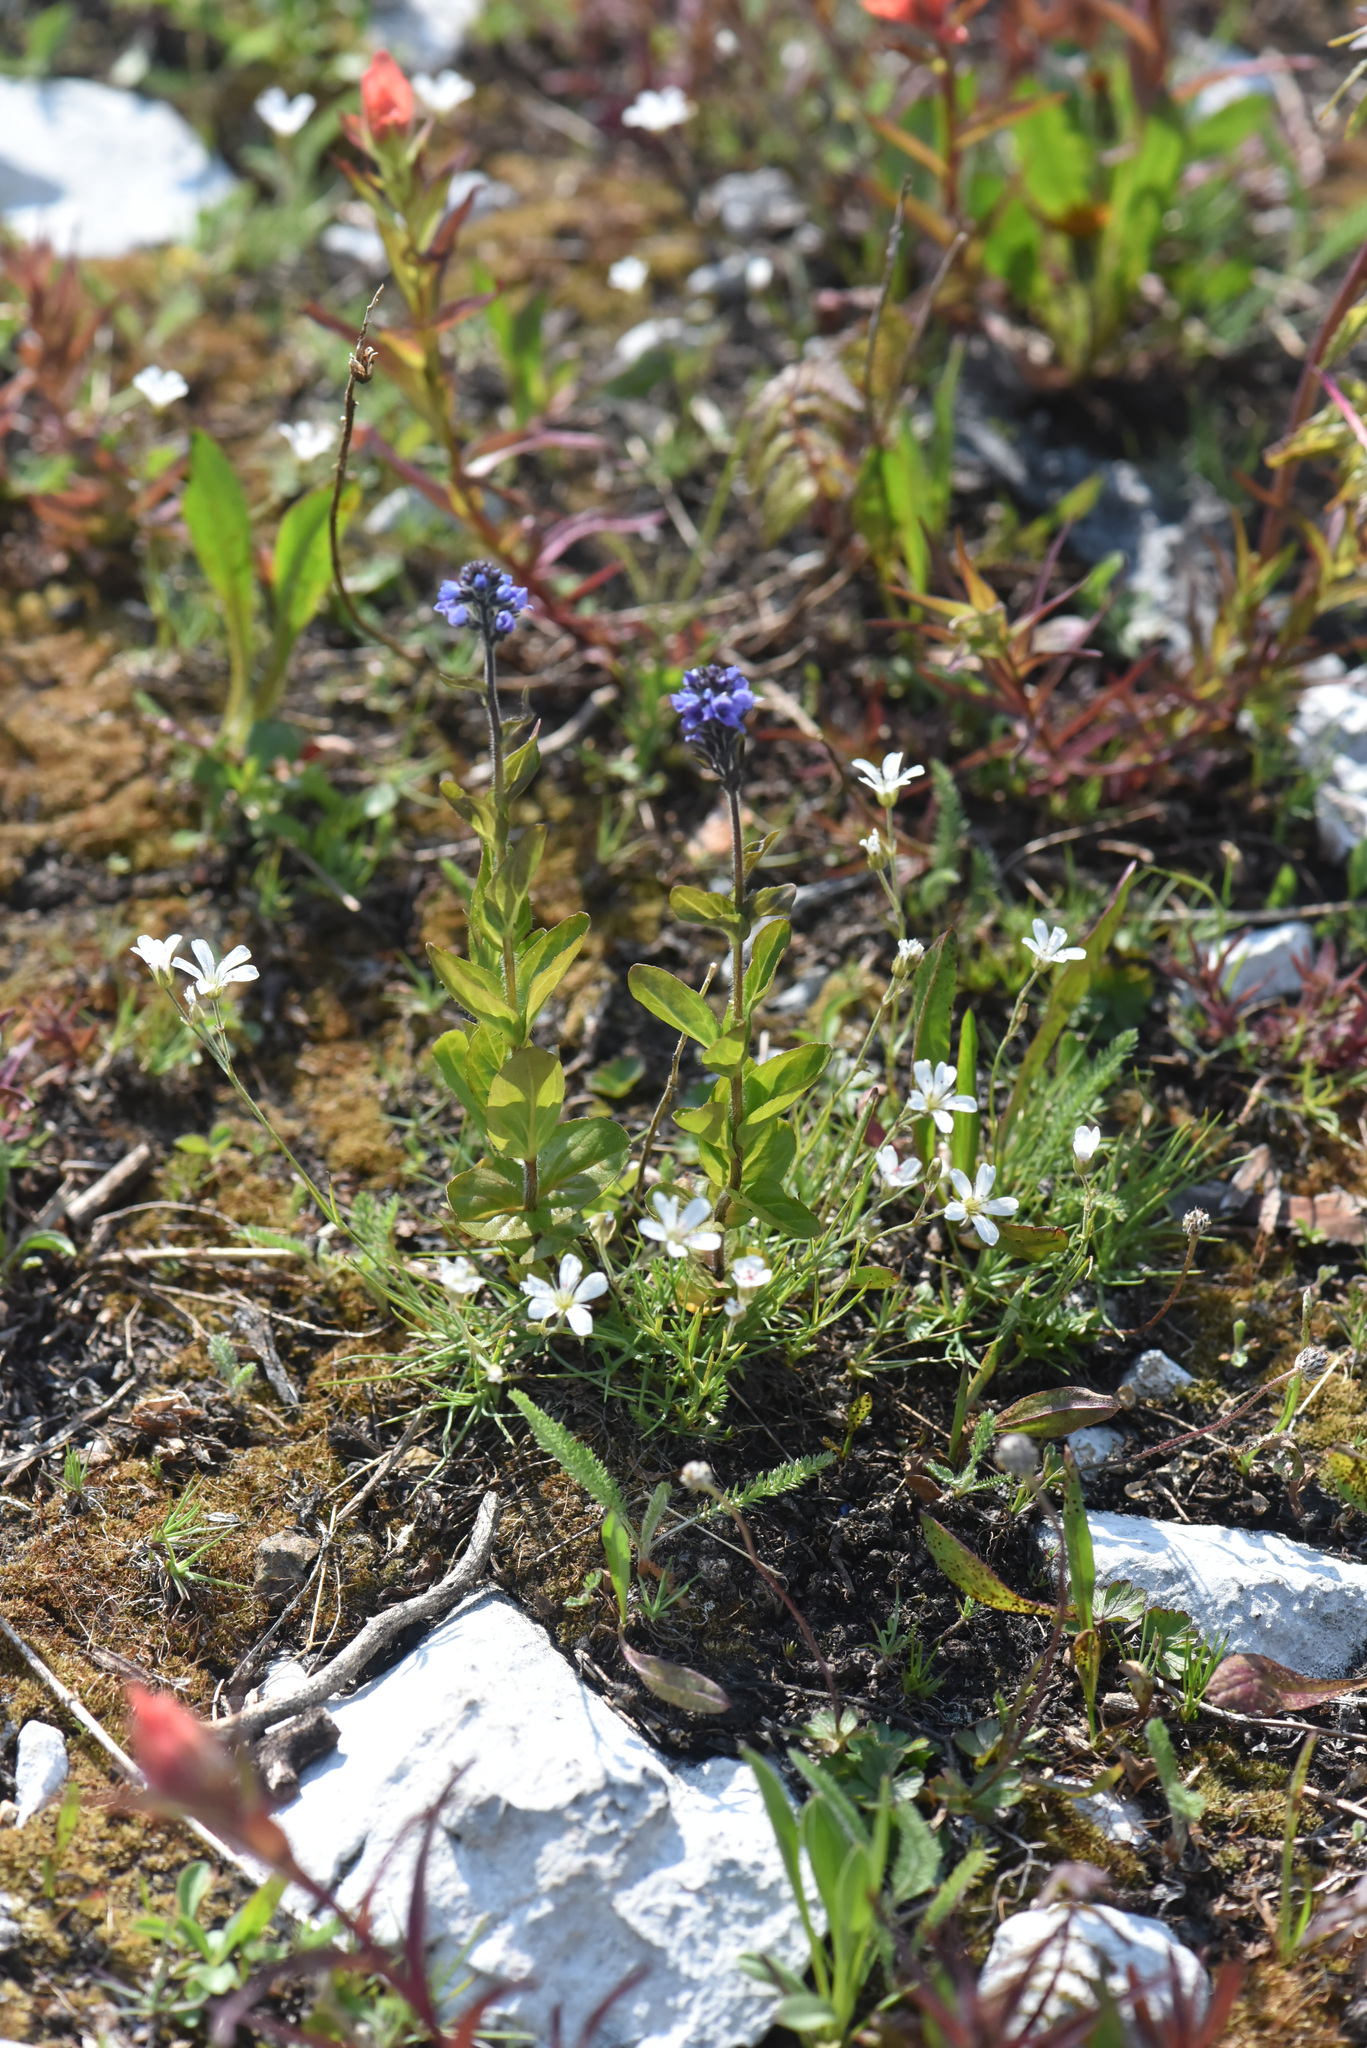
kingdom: Plantae
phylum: Tracheophyta
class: Magnoliopsida
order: Lamiales
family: Plantaginaceae
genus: Veronica
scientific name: Veronica wormskjoldii
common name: American alpine speedwell
